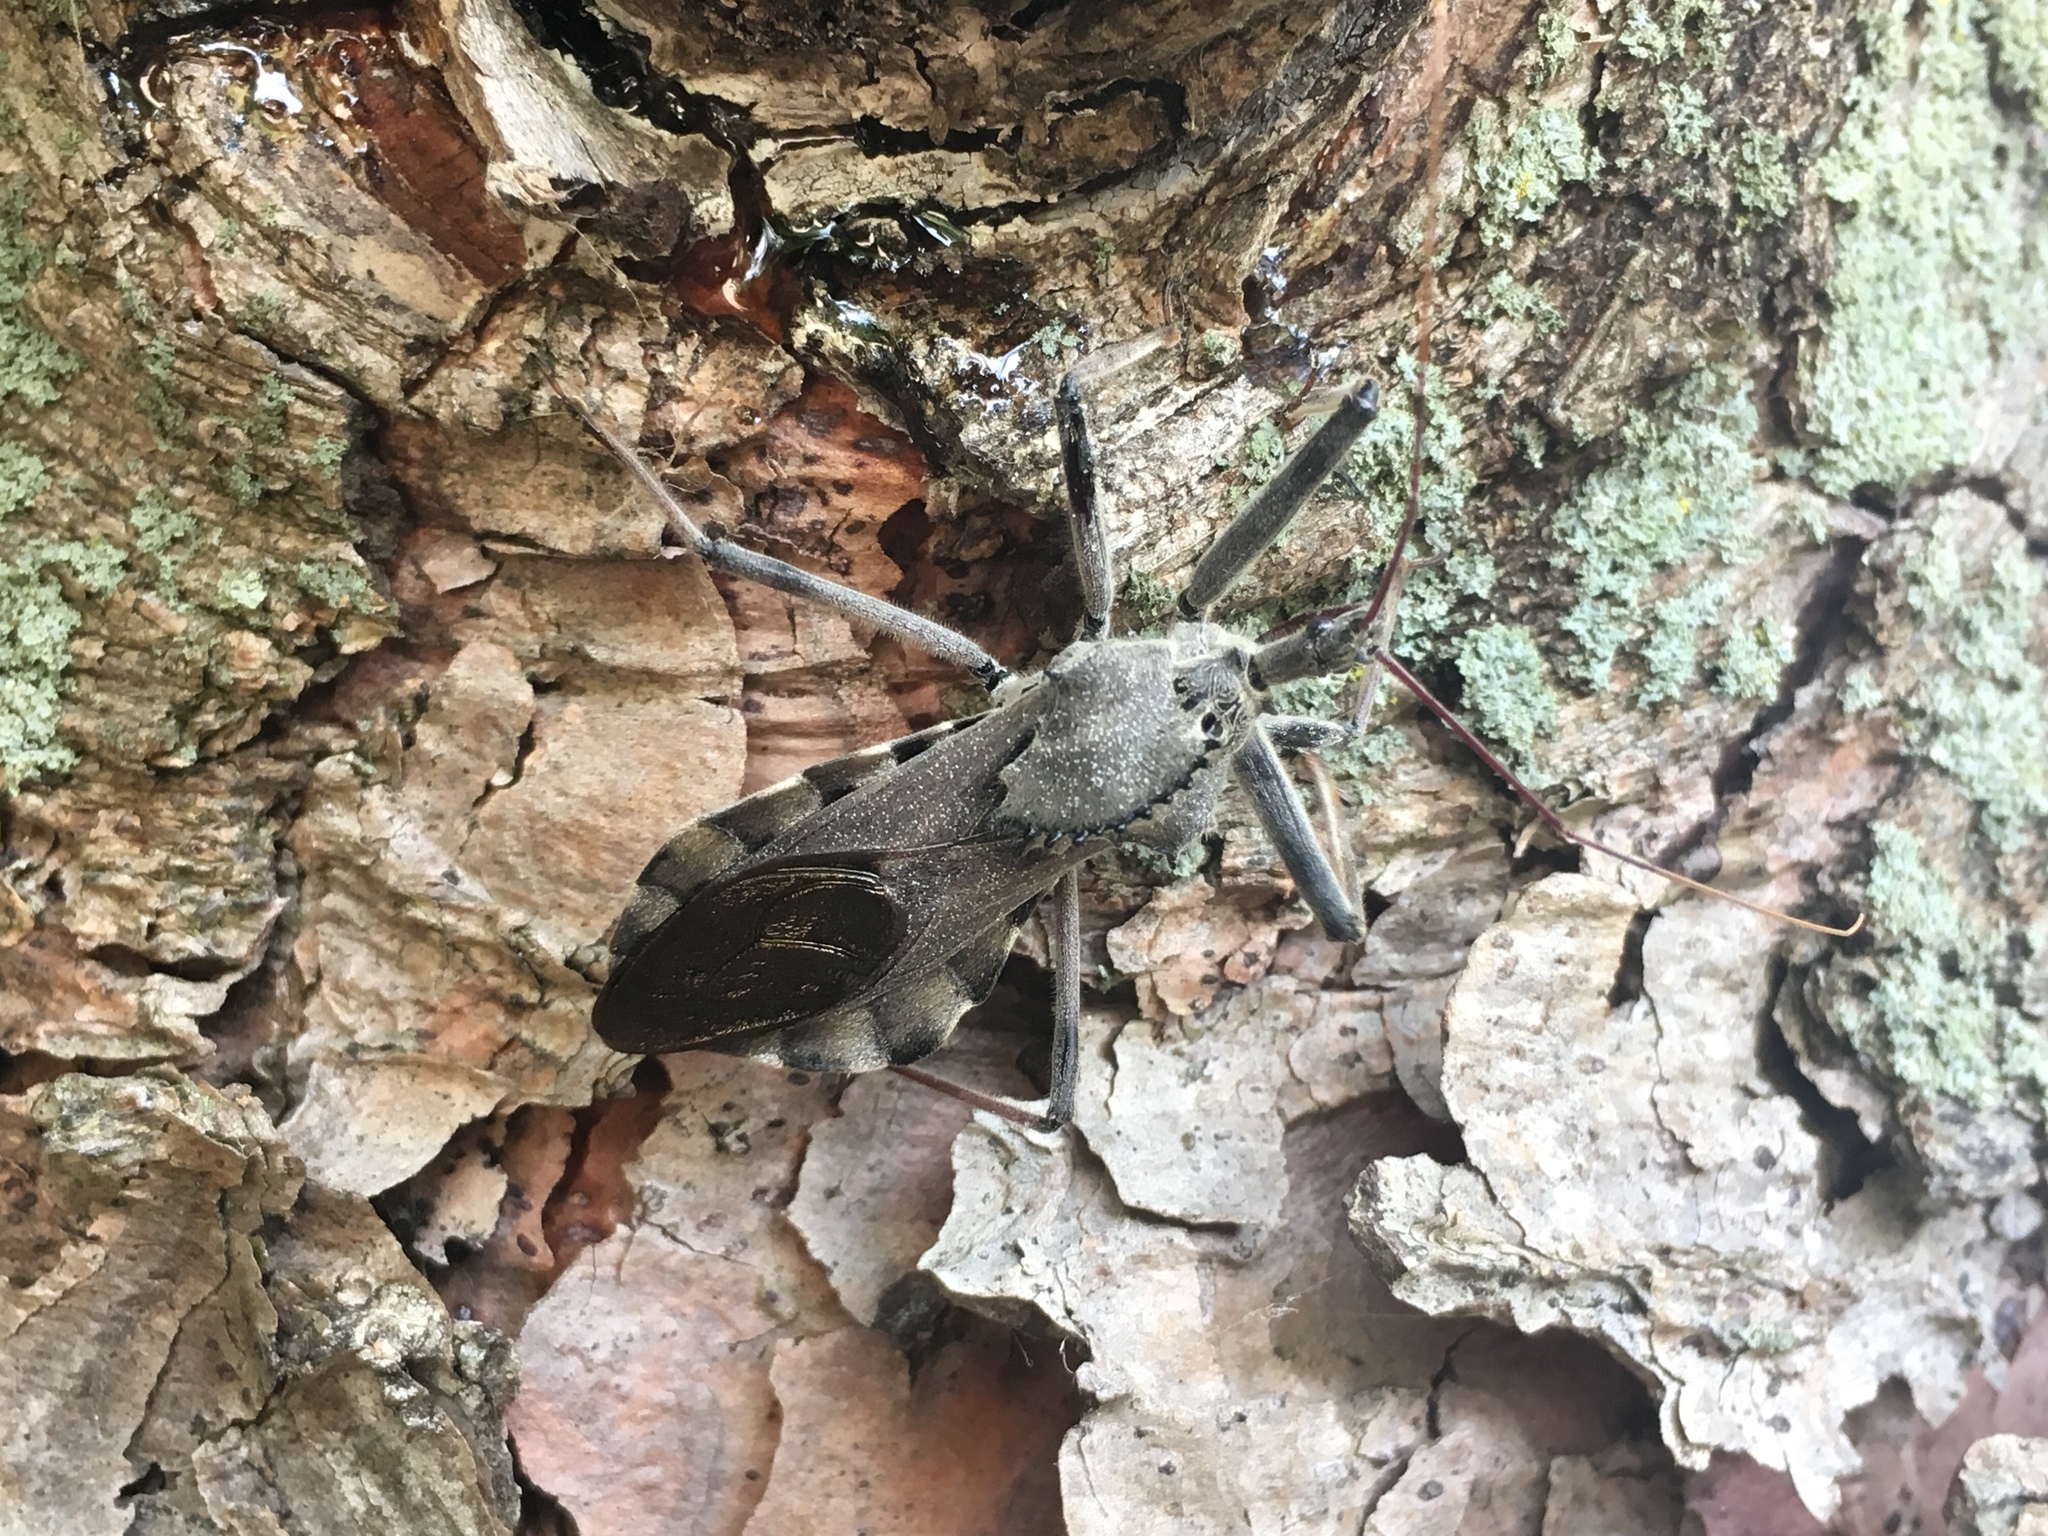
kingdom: Animalia
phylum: Arthropoda
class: Insecta
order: Hemiptera
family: Reduviidae
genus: Arilus
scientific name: Arilus cristatus
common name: North american wheel bug
